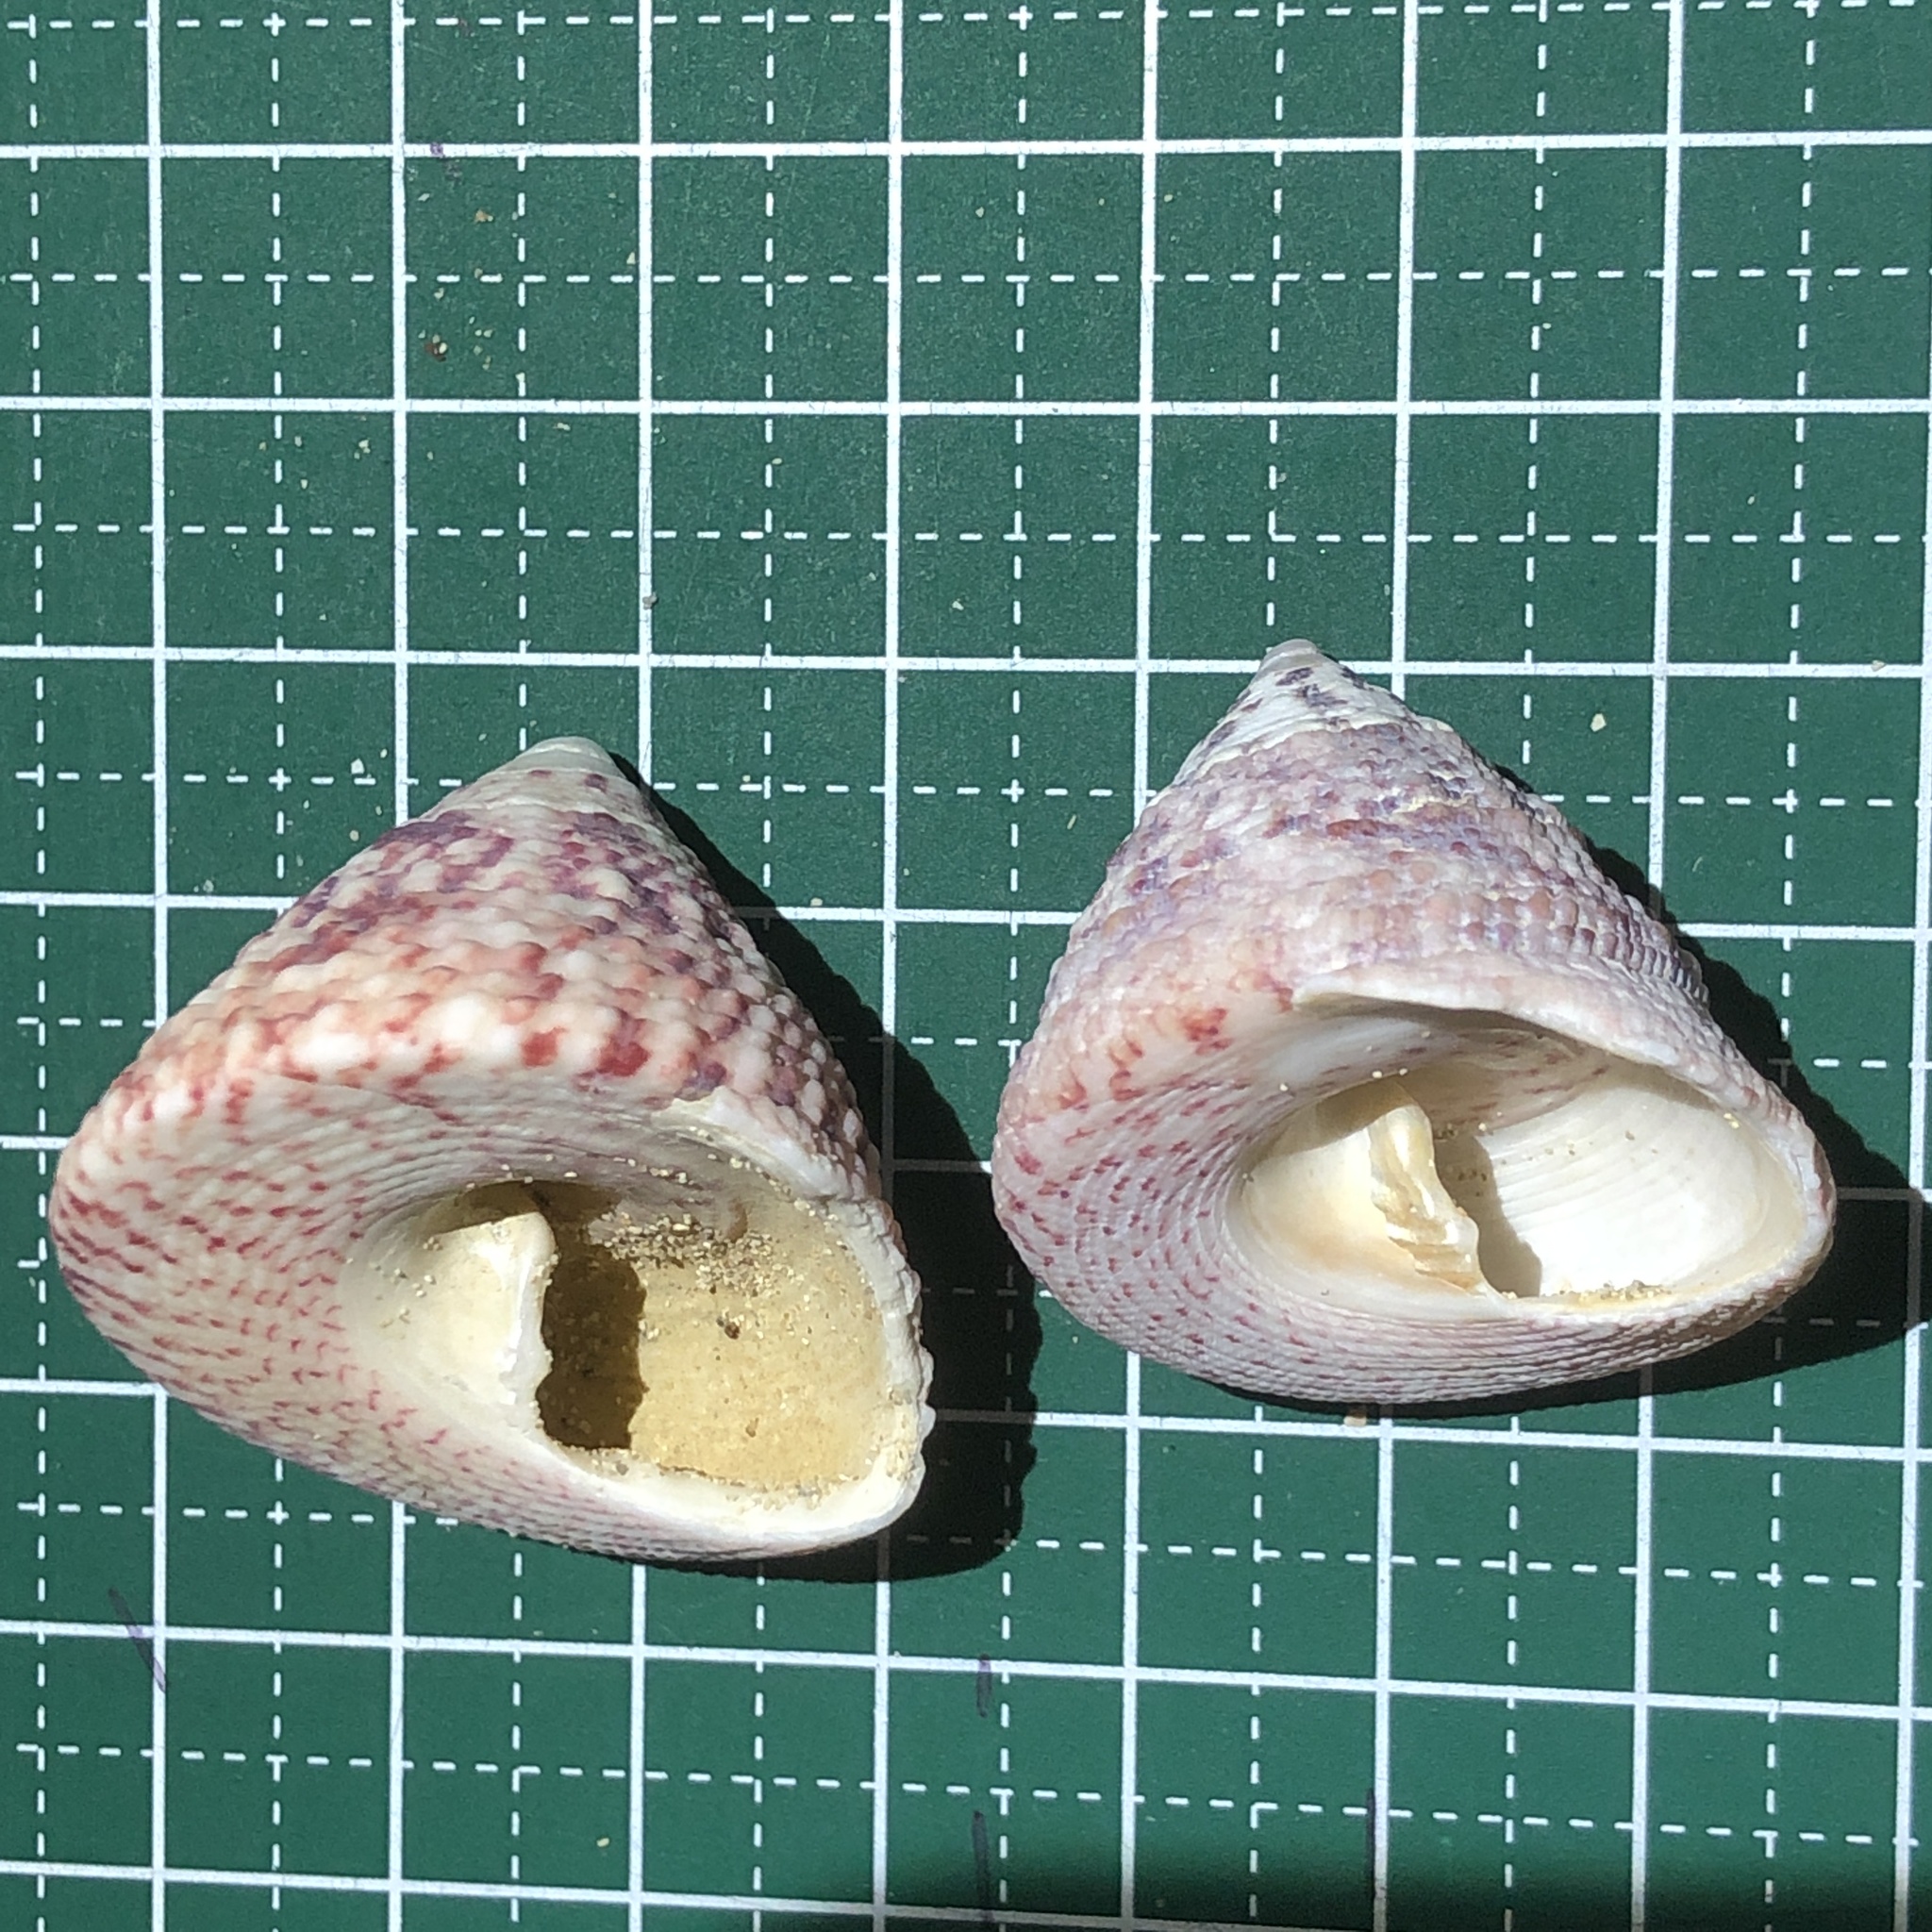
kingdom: Animalia
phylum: Mollusca
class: Gastropoda
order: Trochida
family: Trochidae
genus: Trochus
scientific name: Trochus maculatus
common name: Maculated top shell
